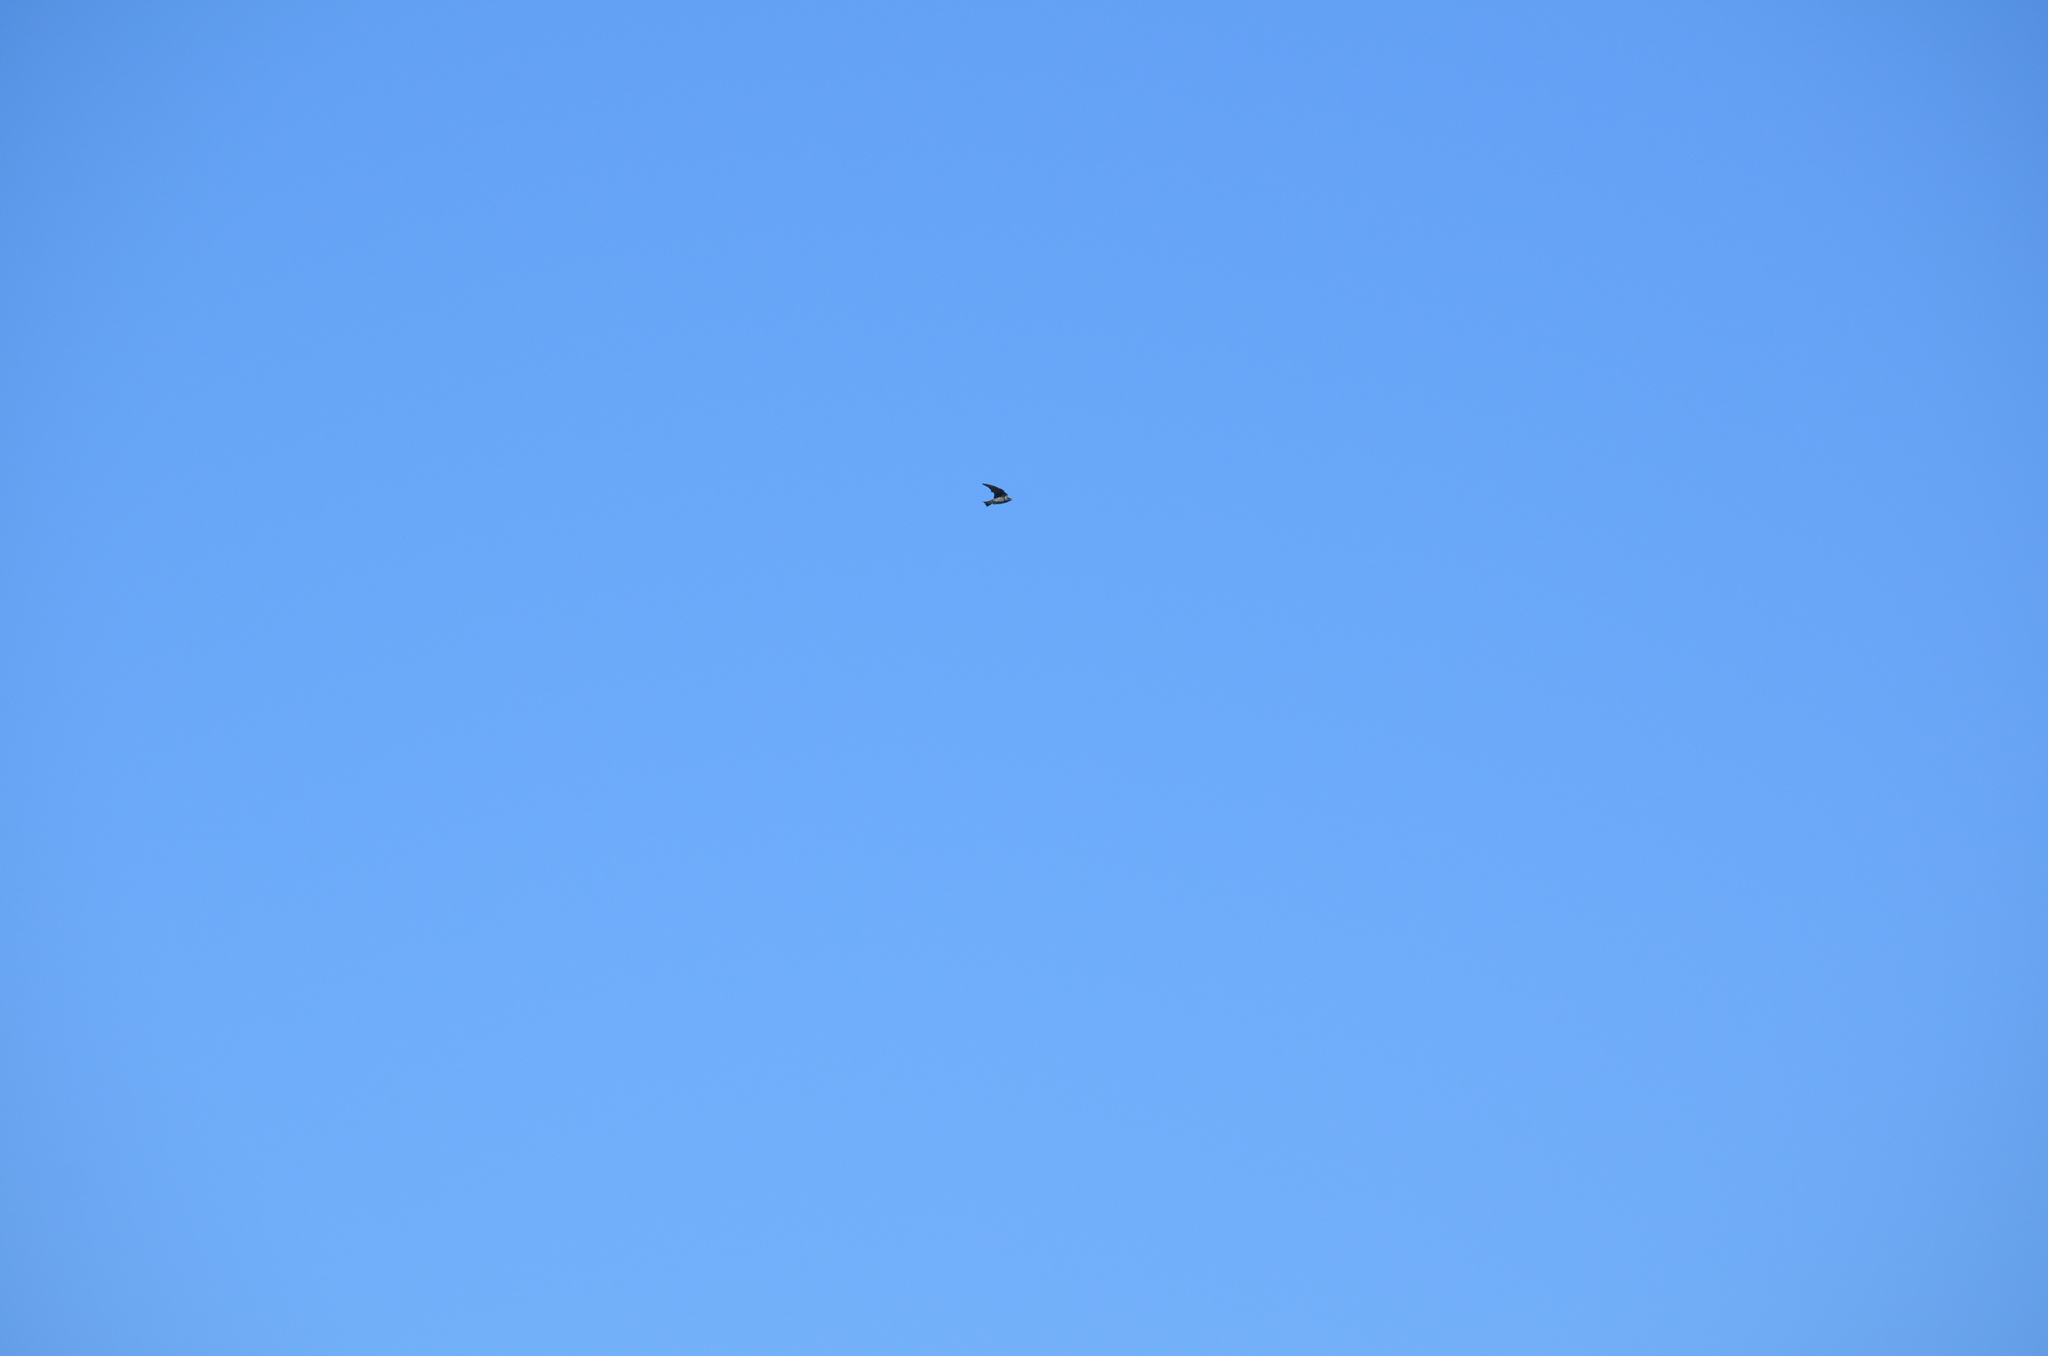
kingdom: Animalia
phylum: Chordata
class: Aves
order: Passeriformes
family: Hirundinidae
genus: Progne
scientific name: Progne subis
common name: Purple martin
